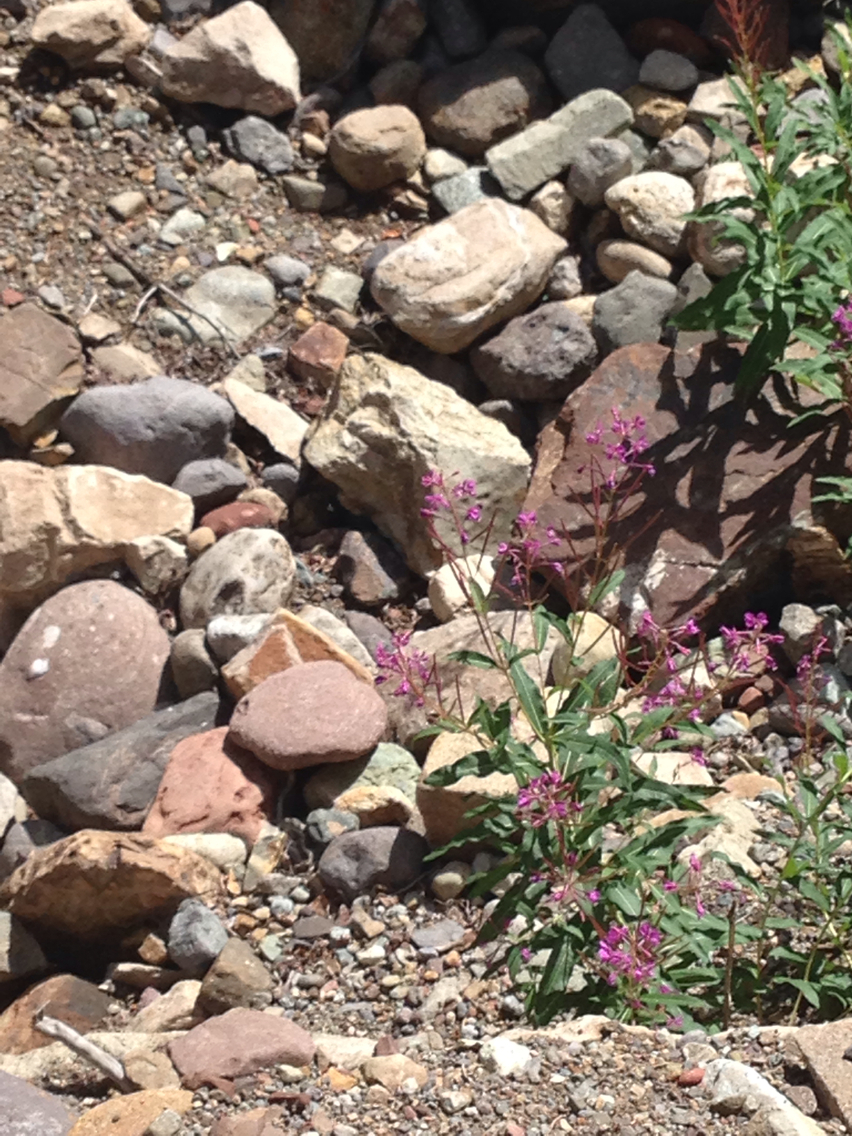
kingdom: Plantae
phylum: Tracheophyta
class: Magnoliopsida
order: Myrtales
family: Onagraceae
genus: Chamaenerion
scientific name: Chamaenerion angustifolium
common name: Fireweed
